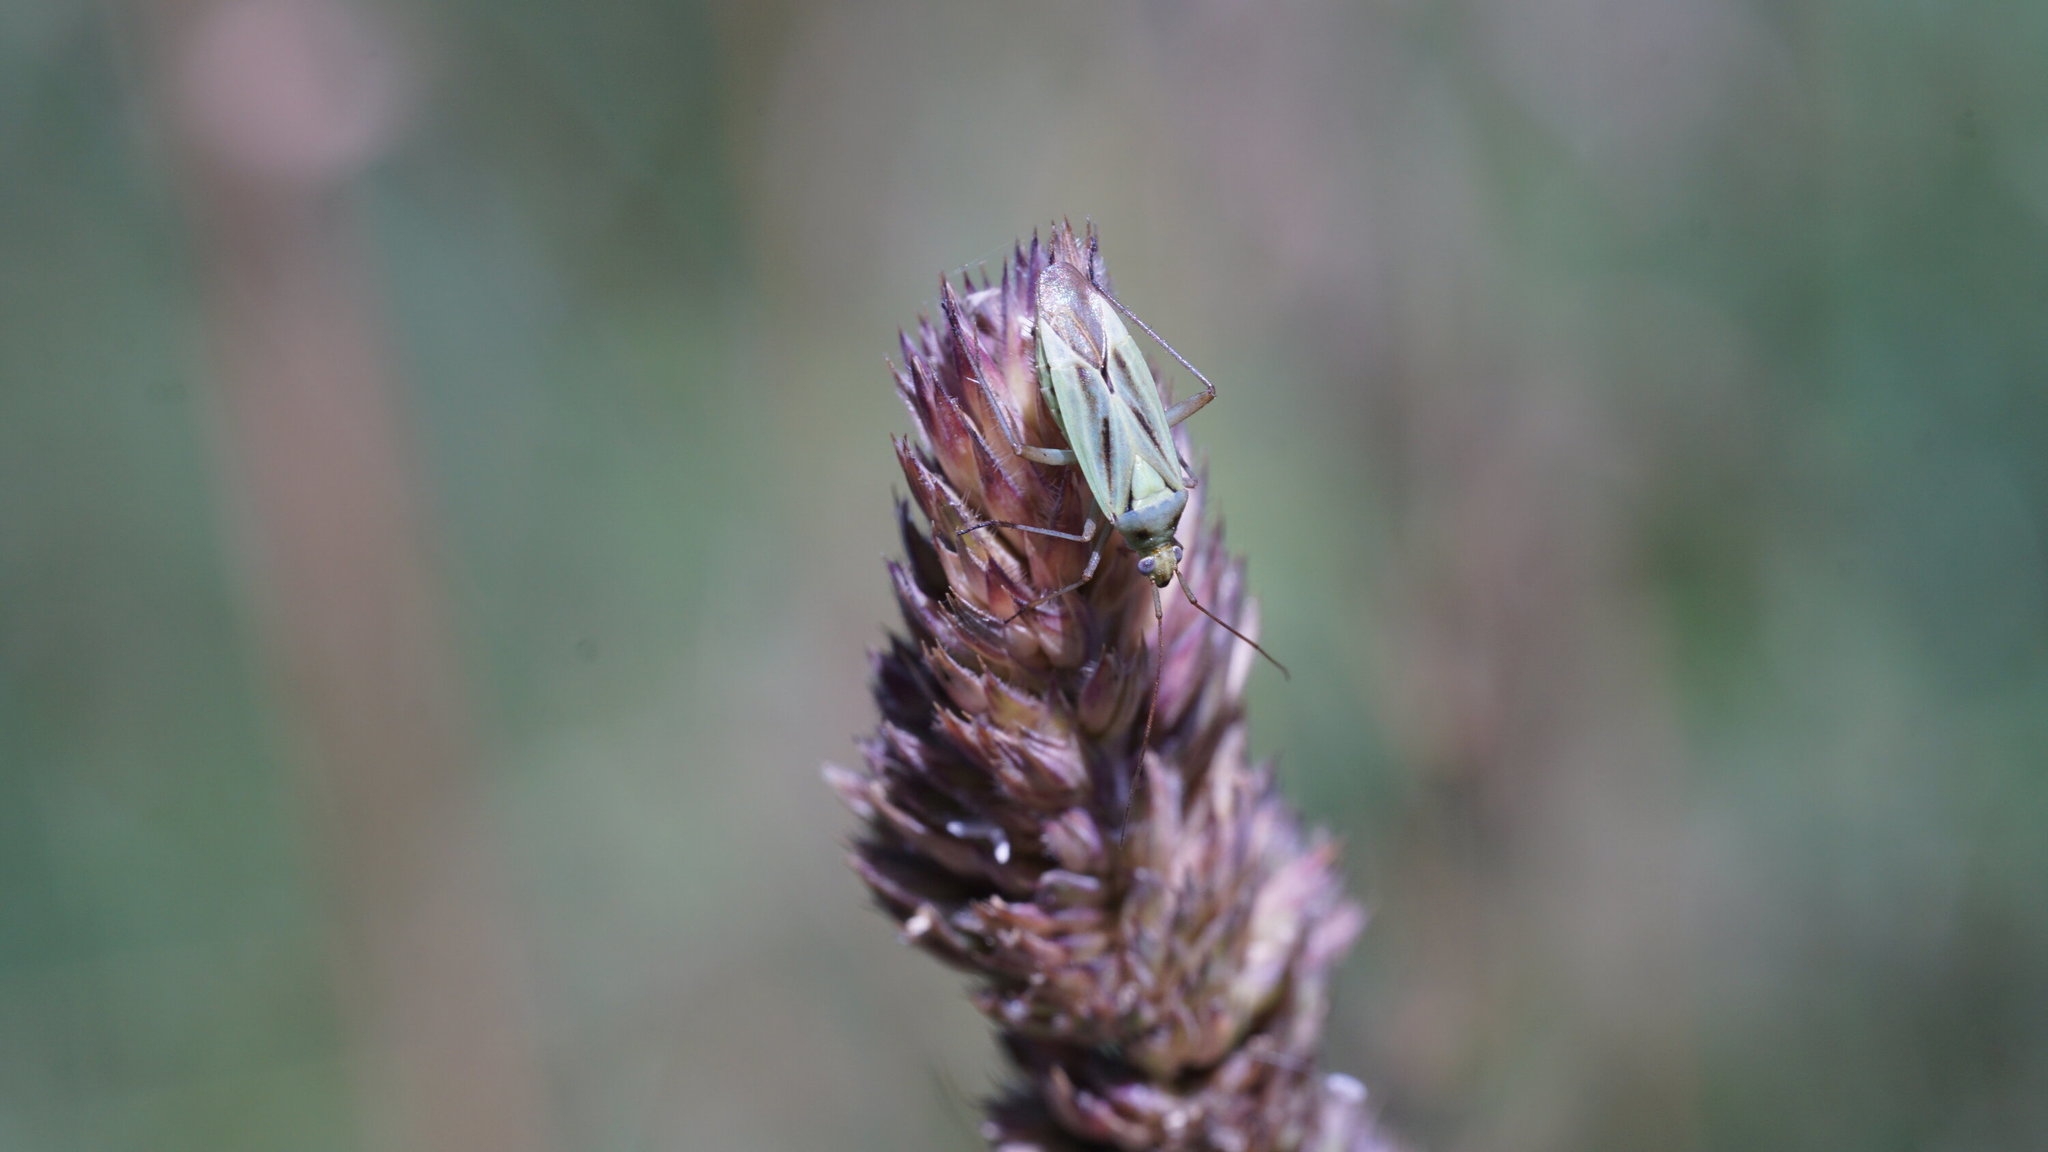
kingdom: Animalia
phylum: Arthropoda
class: Insecta
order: Hemiptera
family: Miridae
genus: Stenotus
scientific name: Stenotus binotatus
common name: Plant bug
